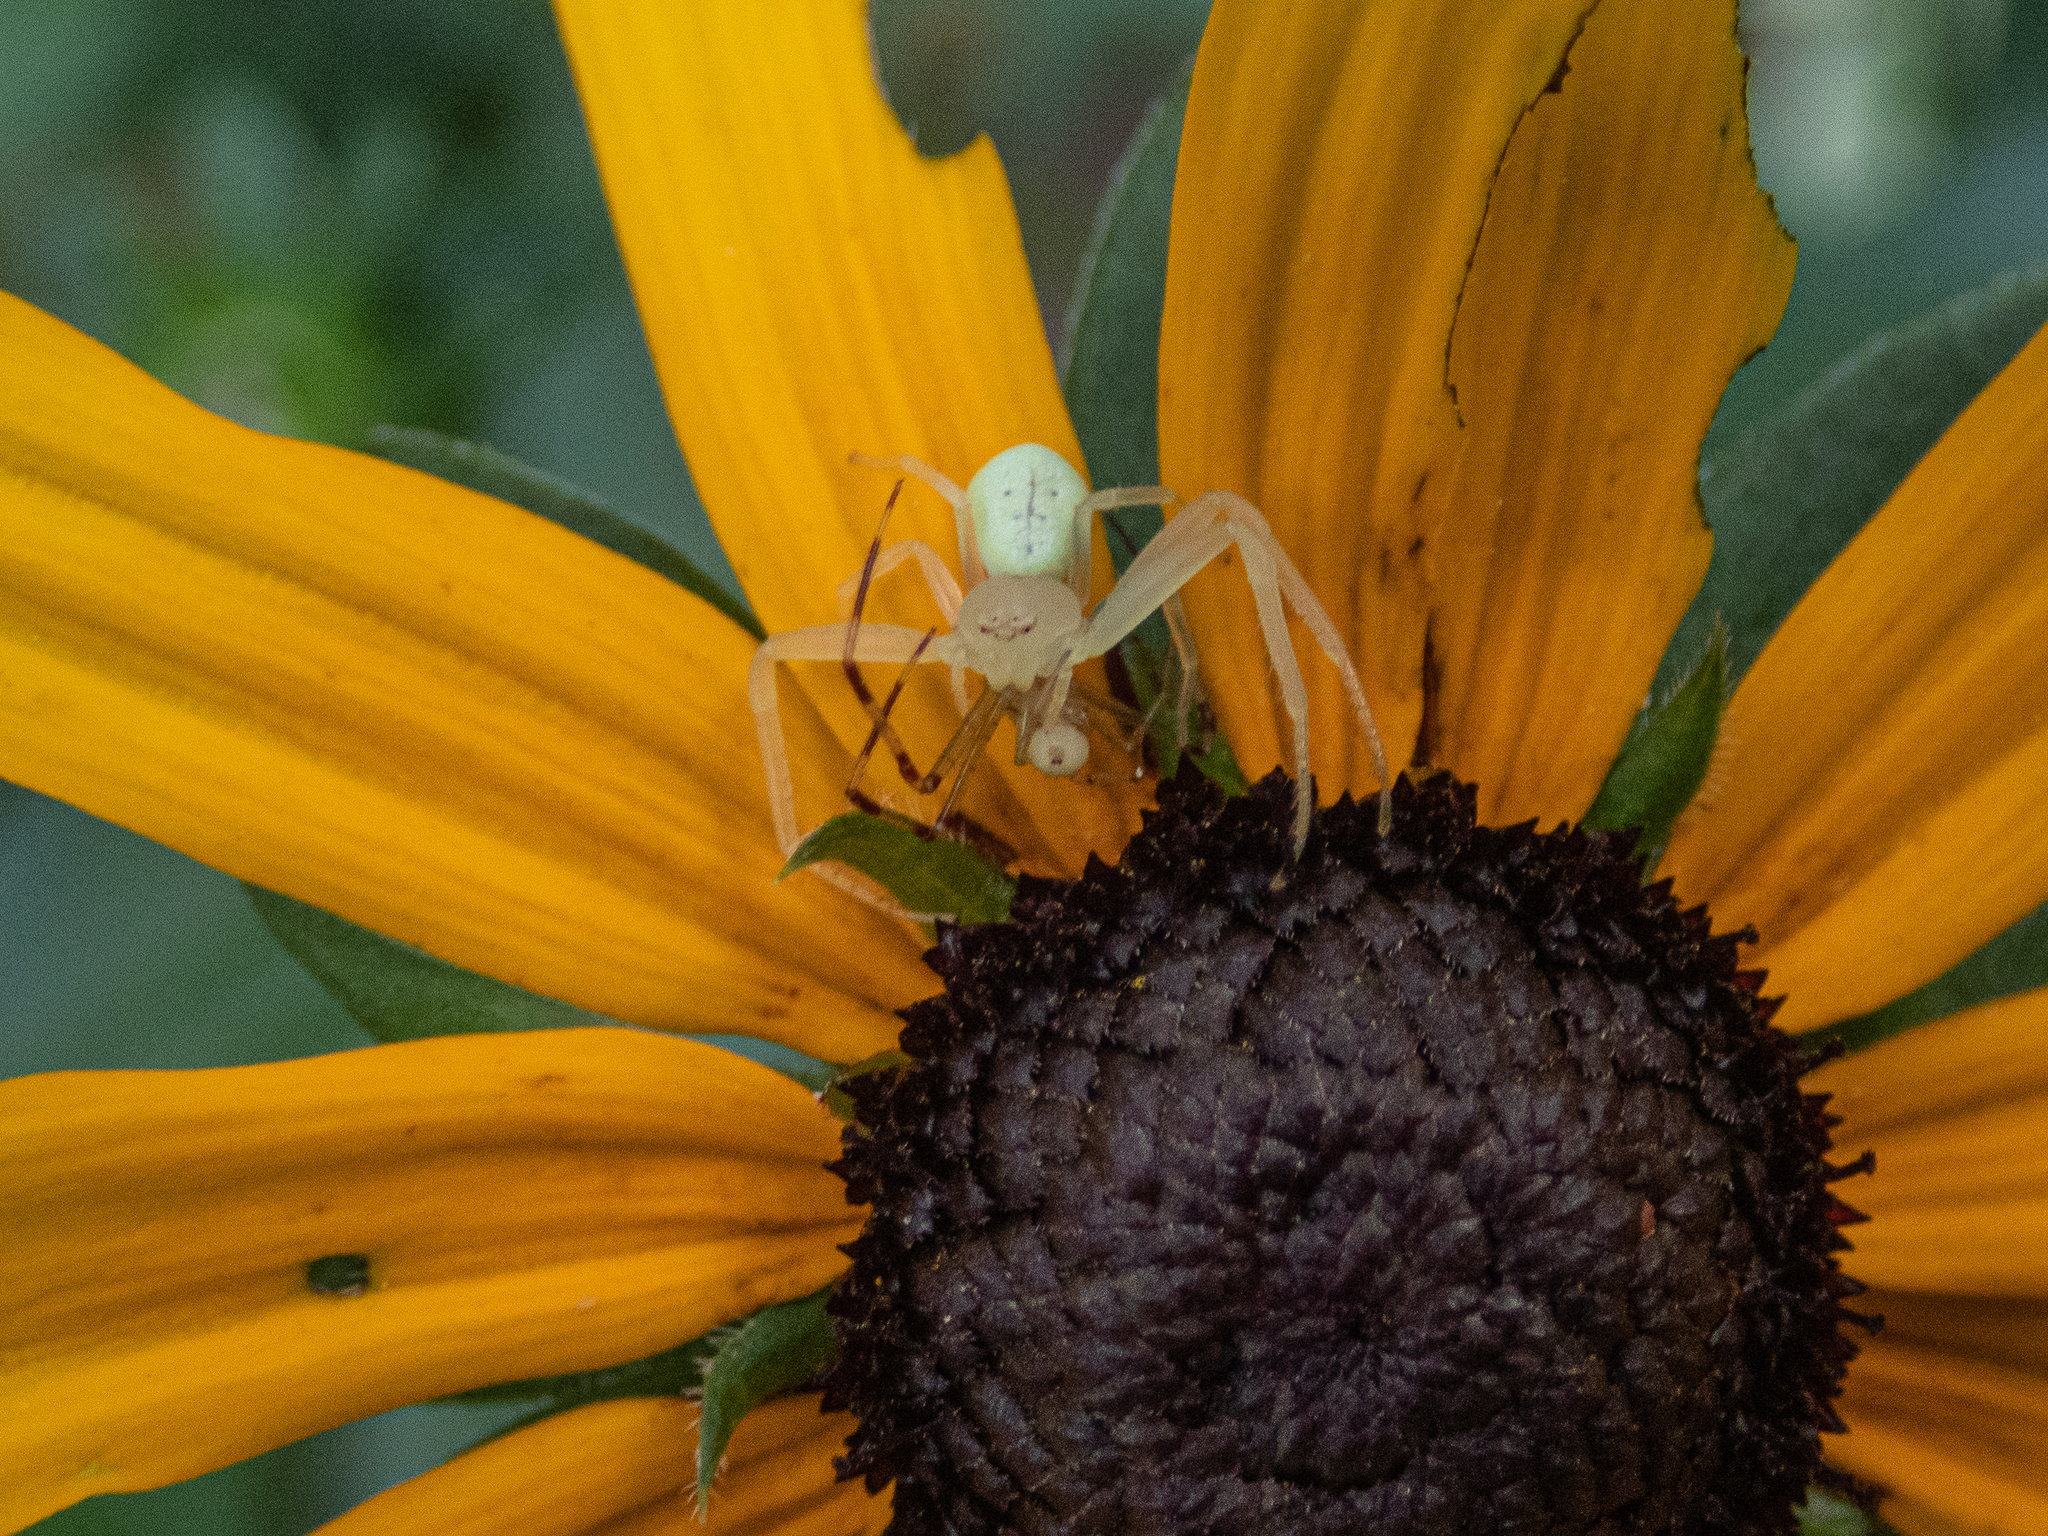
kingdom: Animalia
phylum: Arthropoda
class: Arachnida
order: Araneae
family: Thomisidae
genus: Misumessus
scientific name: Misumessus oblongus
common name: American green crab spider
